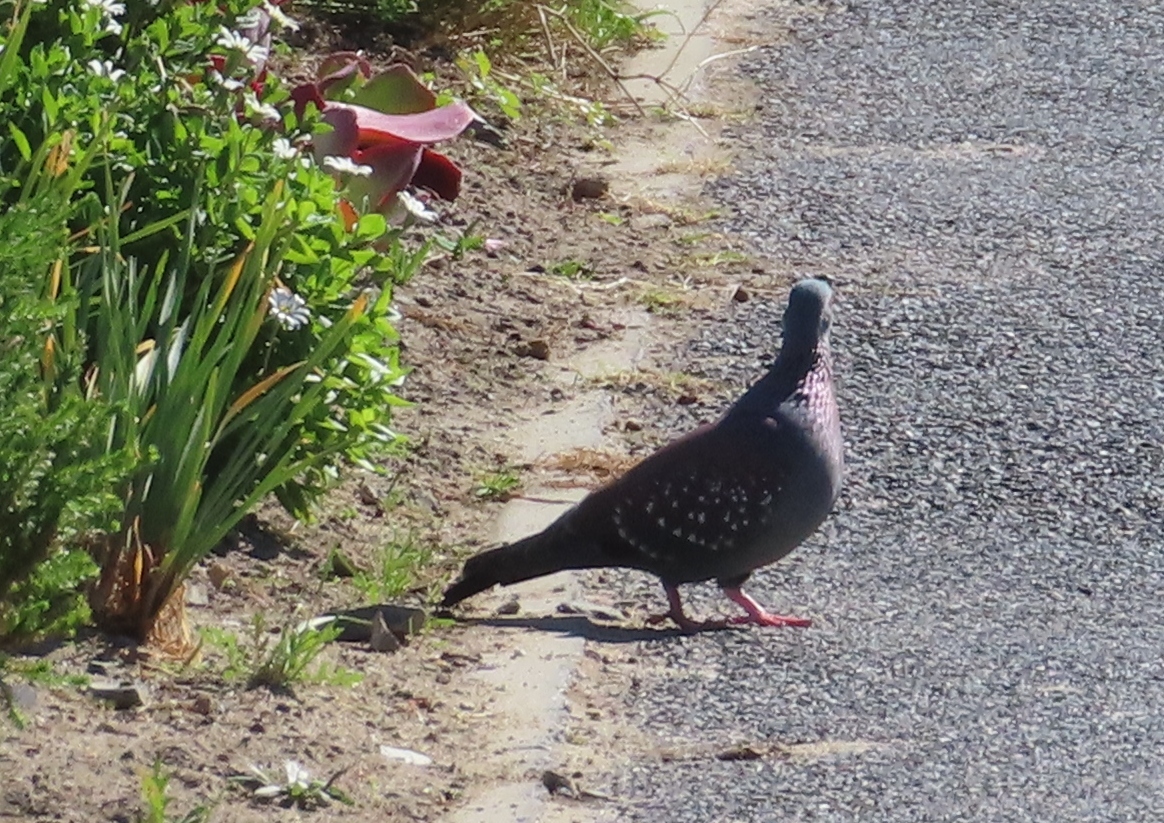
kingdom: Animalia
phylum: Chordata
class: Aves
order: Columbiformes
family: Columbidae
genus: Columba
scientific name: Columba guinea
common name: Speckled pigeon
